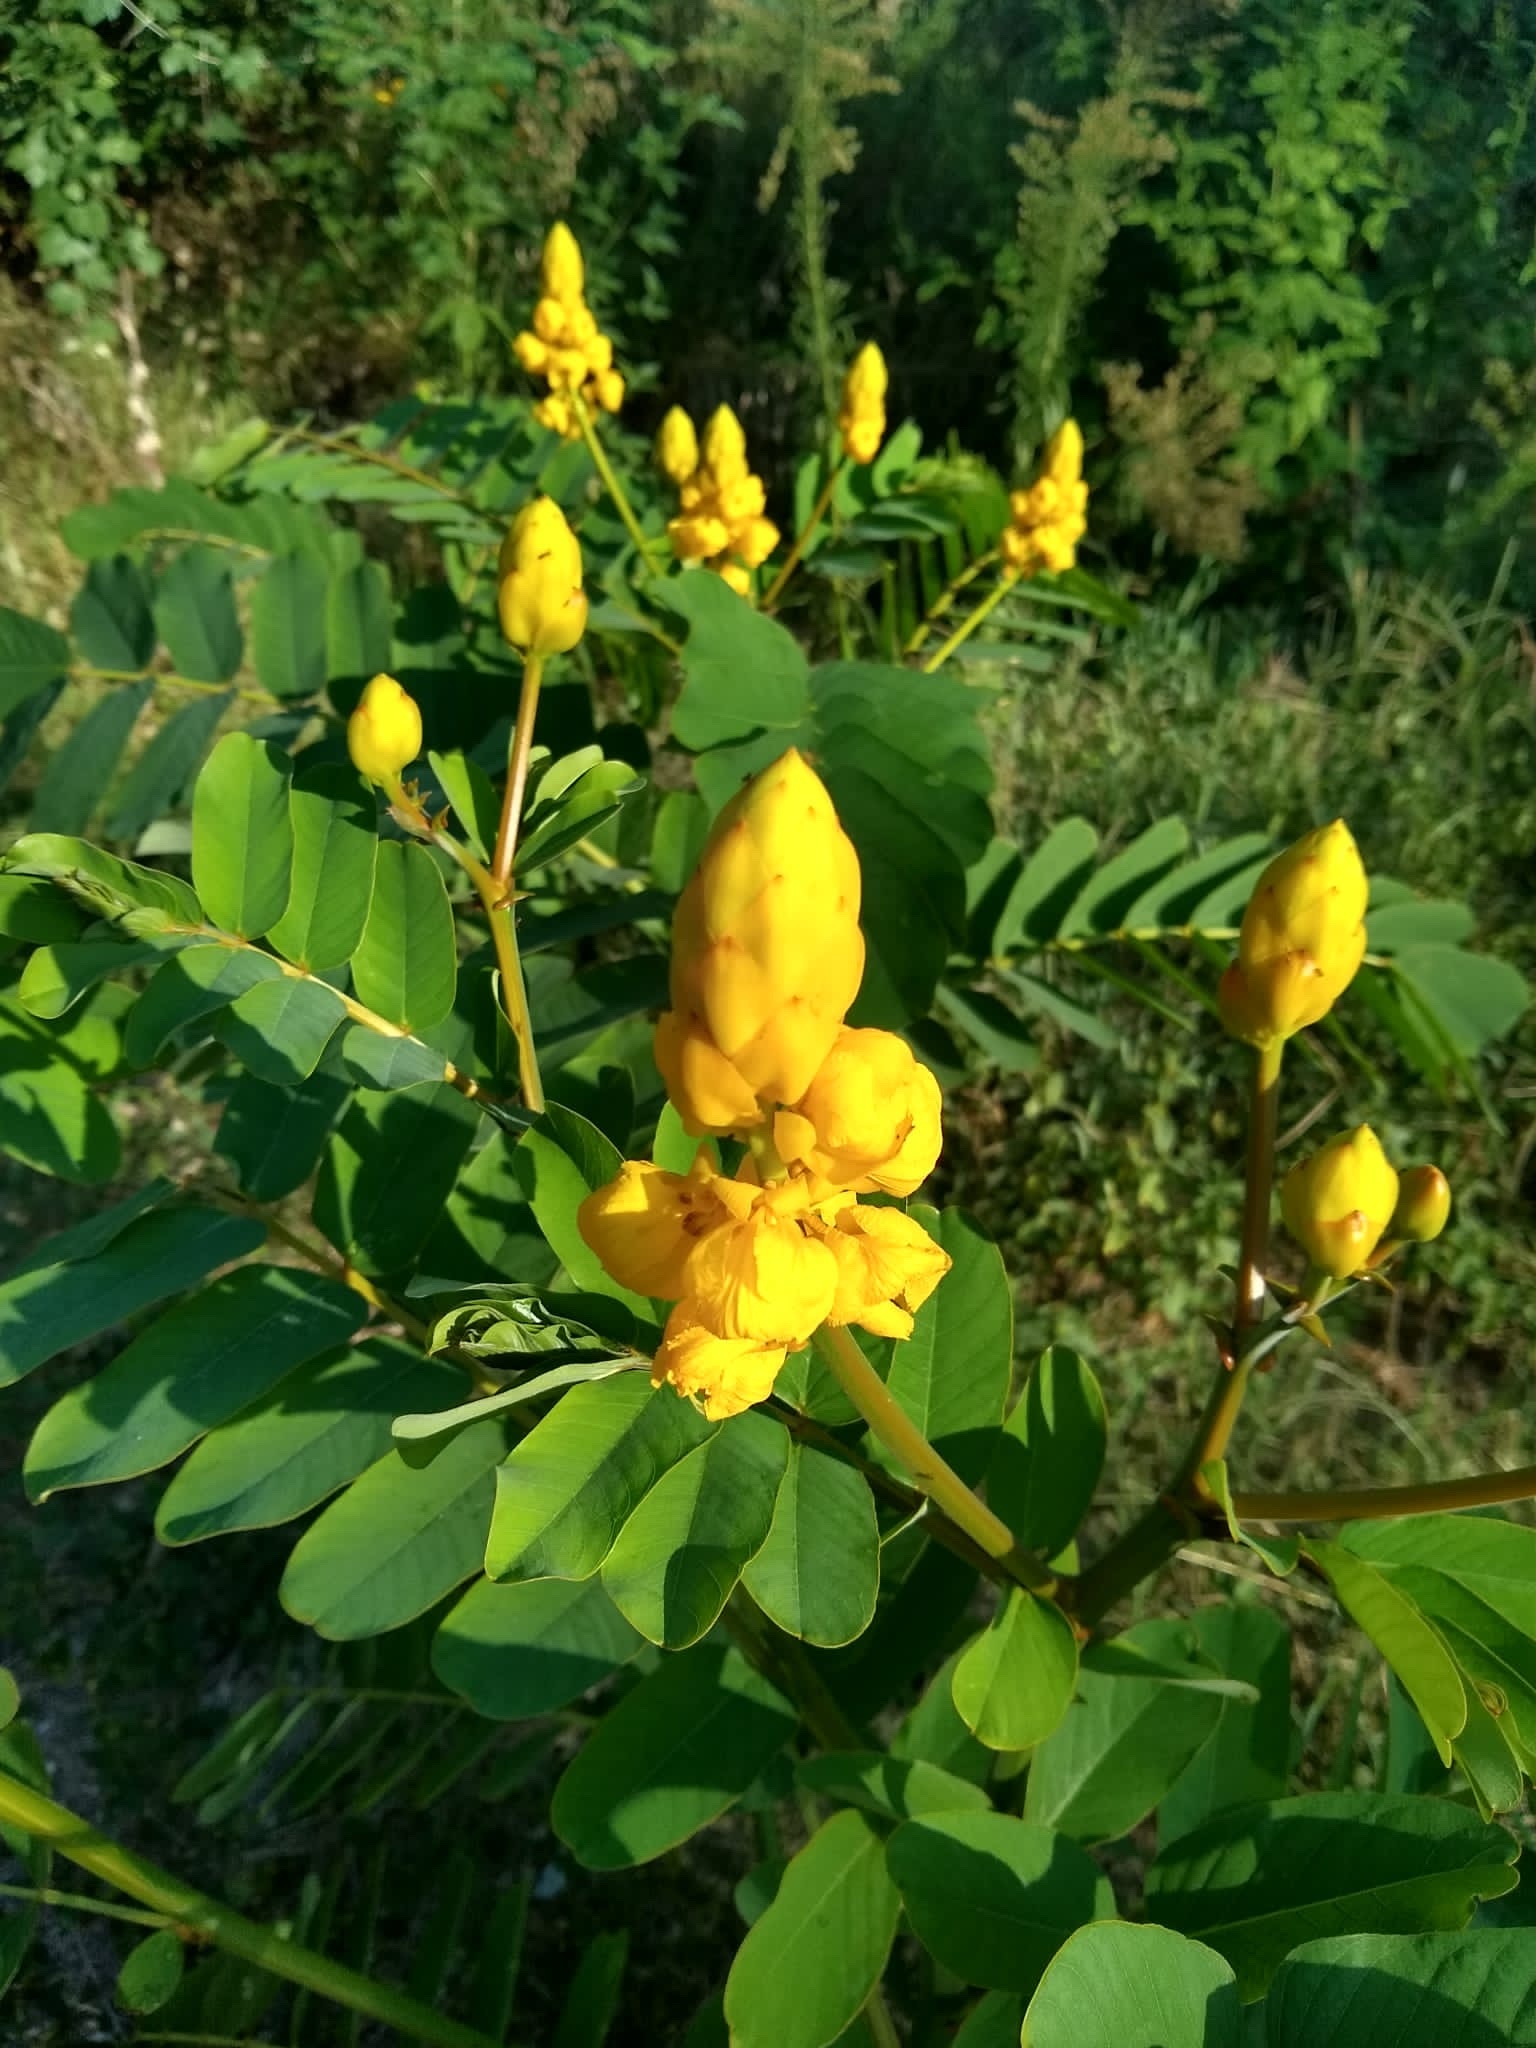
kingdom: Plantae
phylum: Tracheophyta
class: Magnoliopsida
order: Fabales
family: Fabaceae
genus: Senna
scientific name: Senna alata
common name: Emperor's candlesticks
